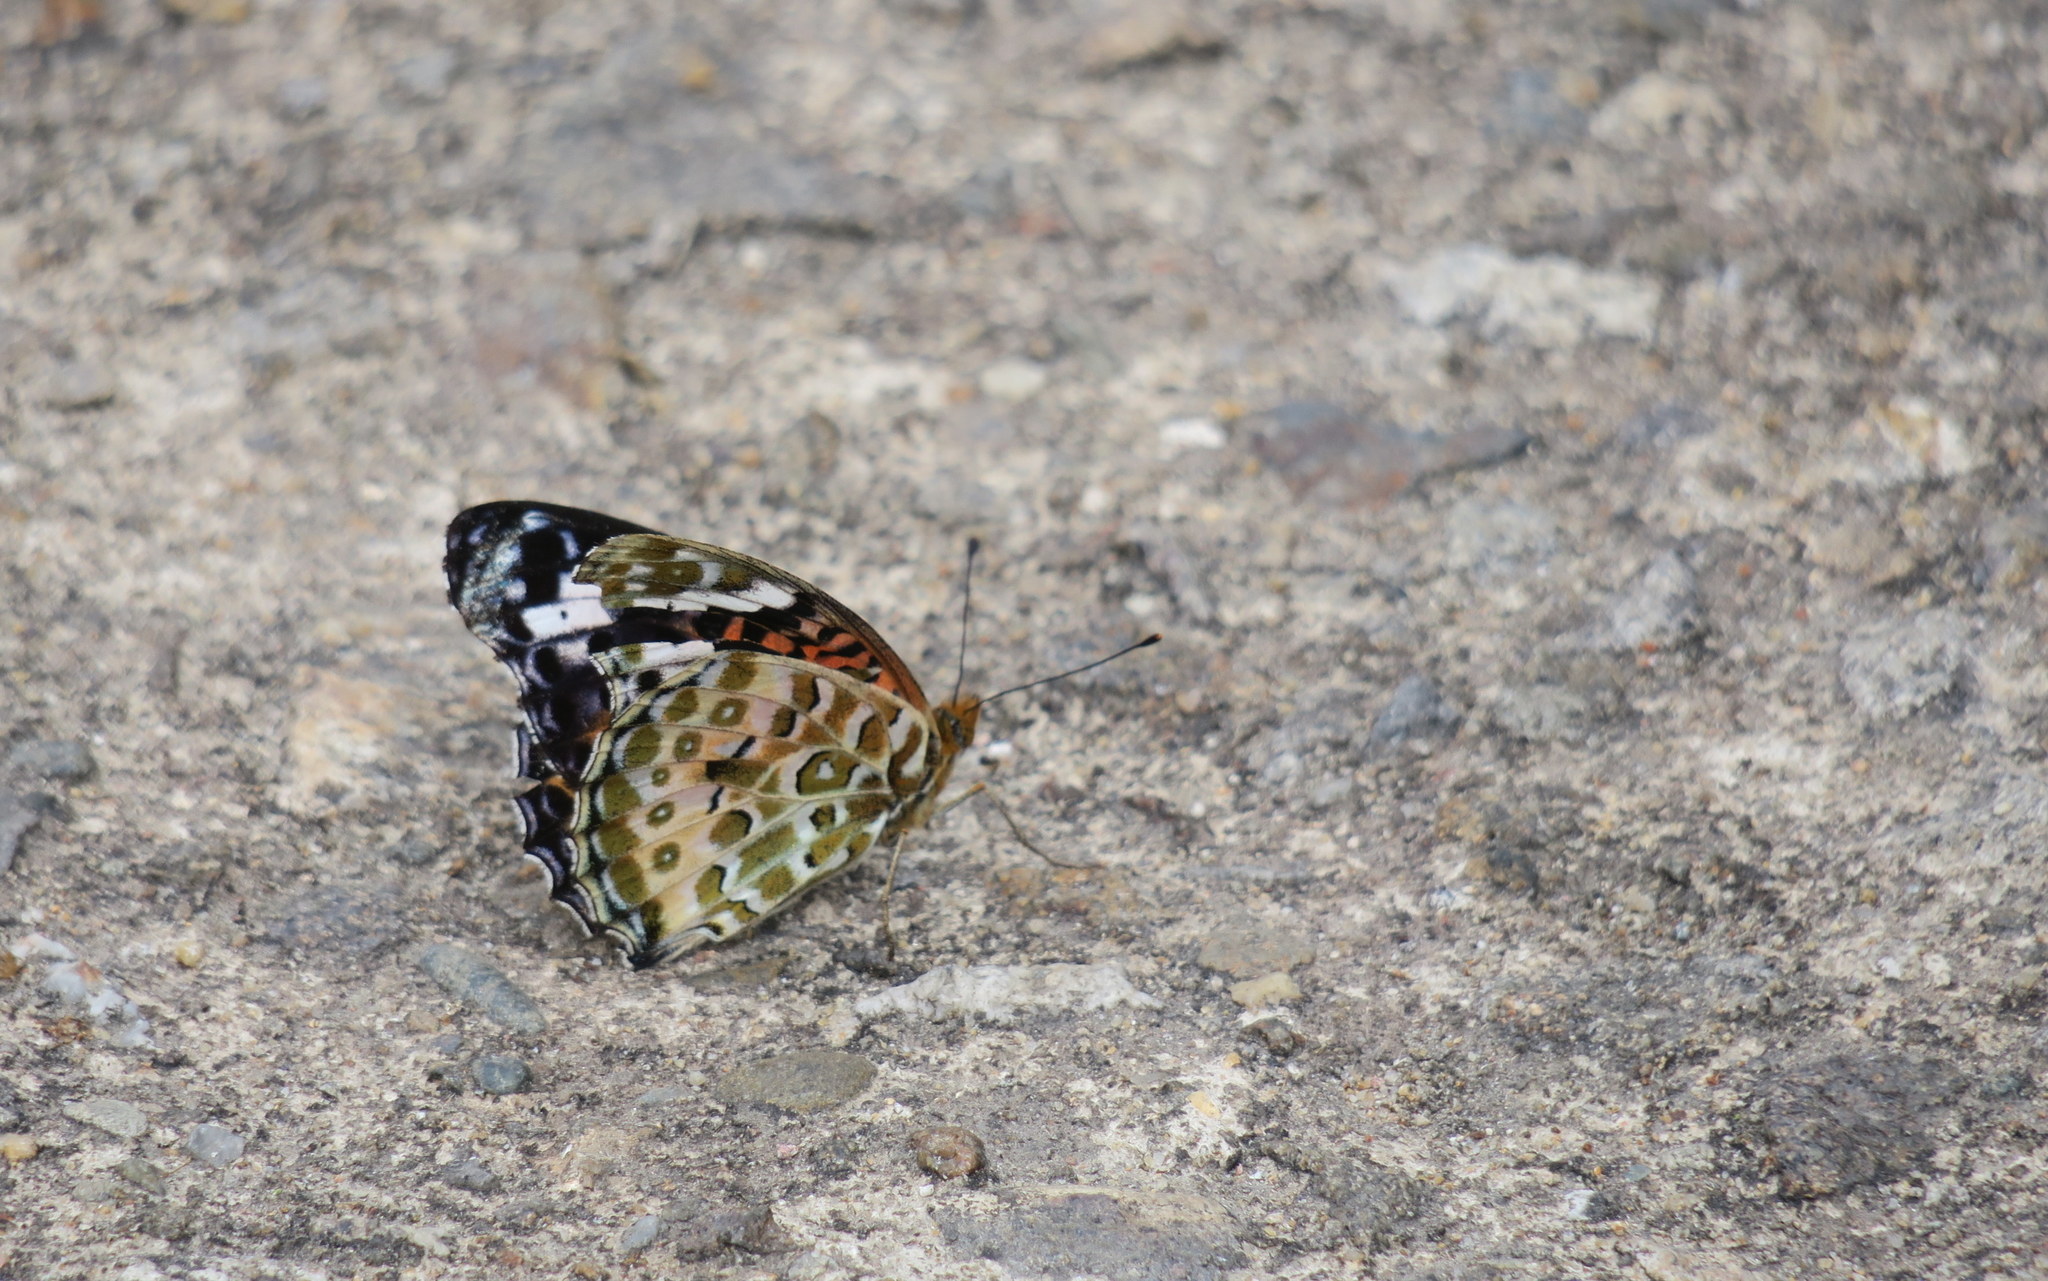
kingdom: Animalia
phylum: Arthropoda
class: Insecta
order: Lepidoptera
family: Nymphalidae
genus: Argynnis
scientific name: Argynnis hyperbius
